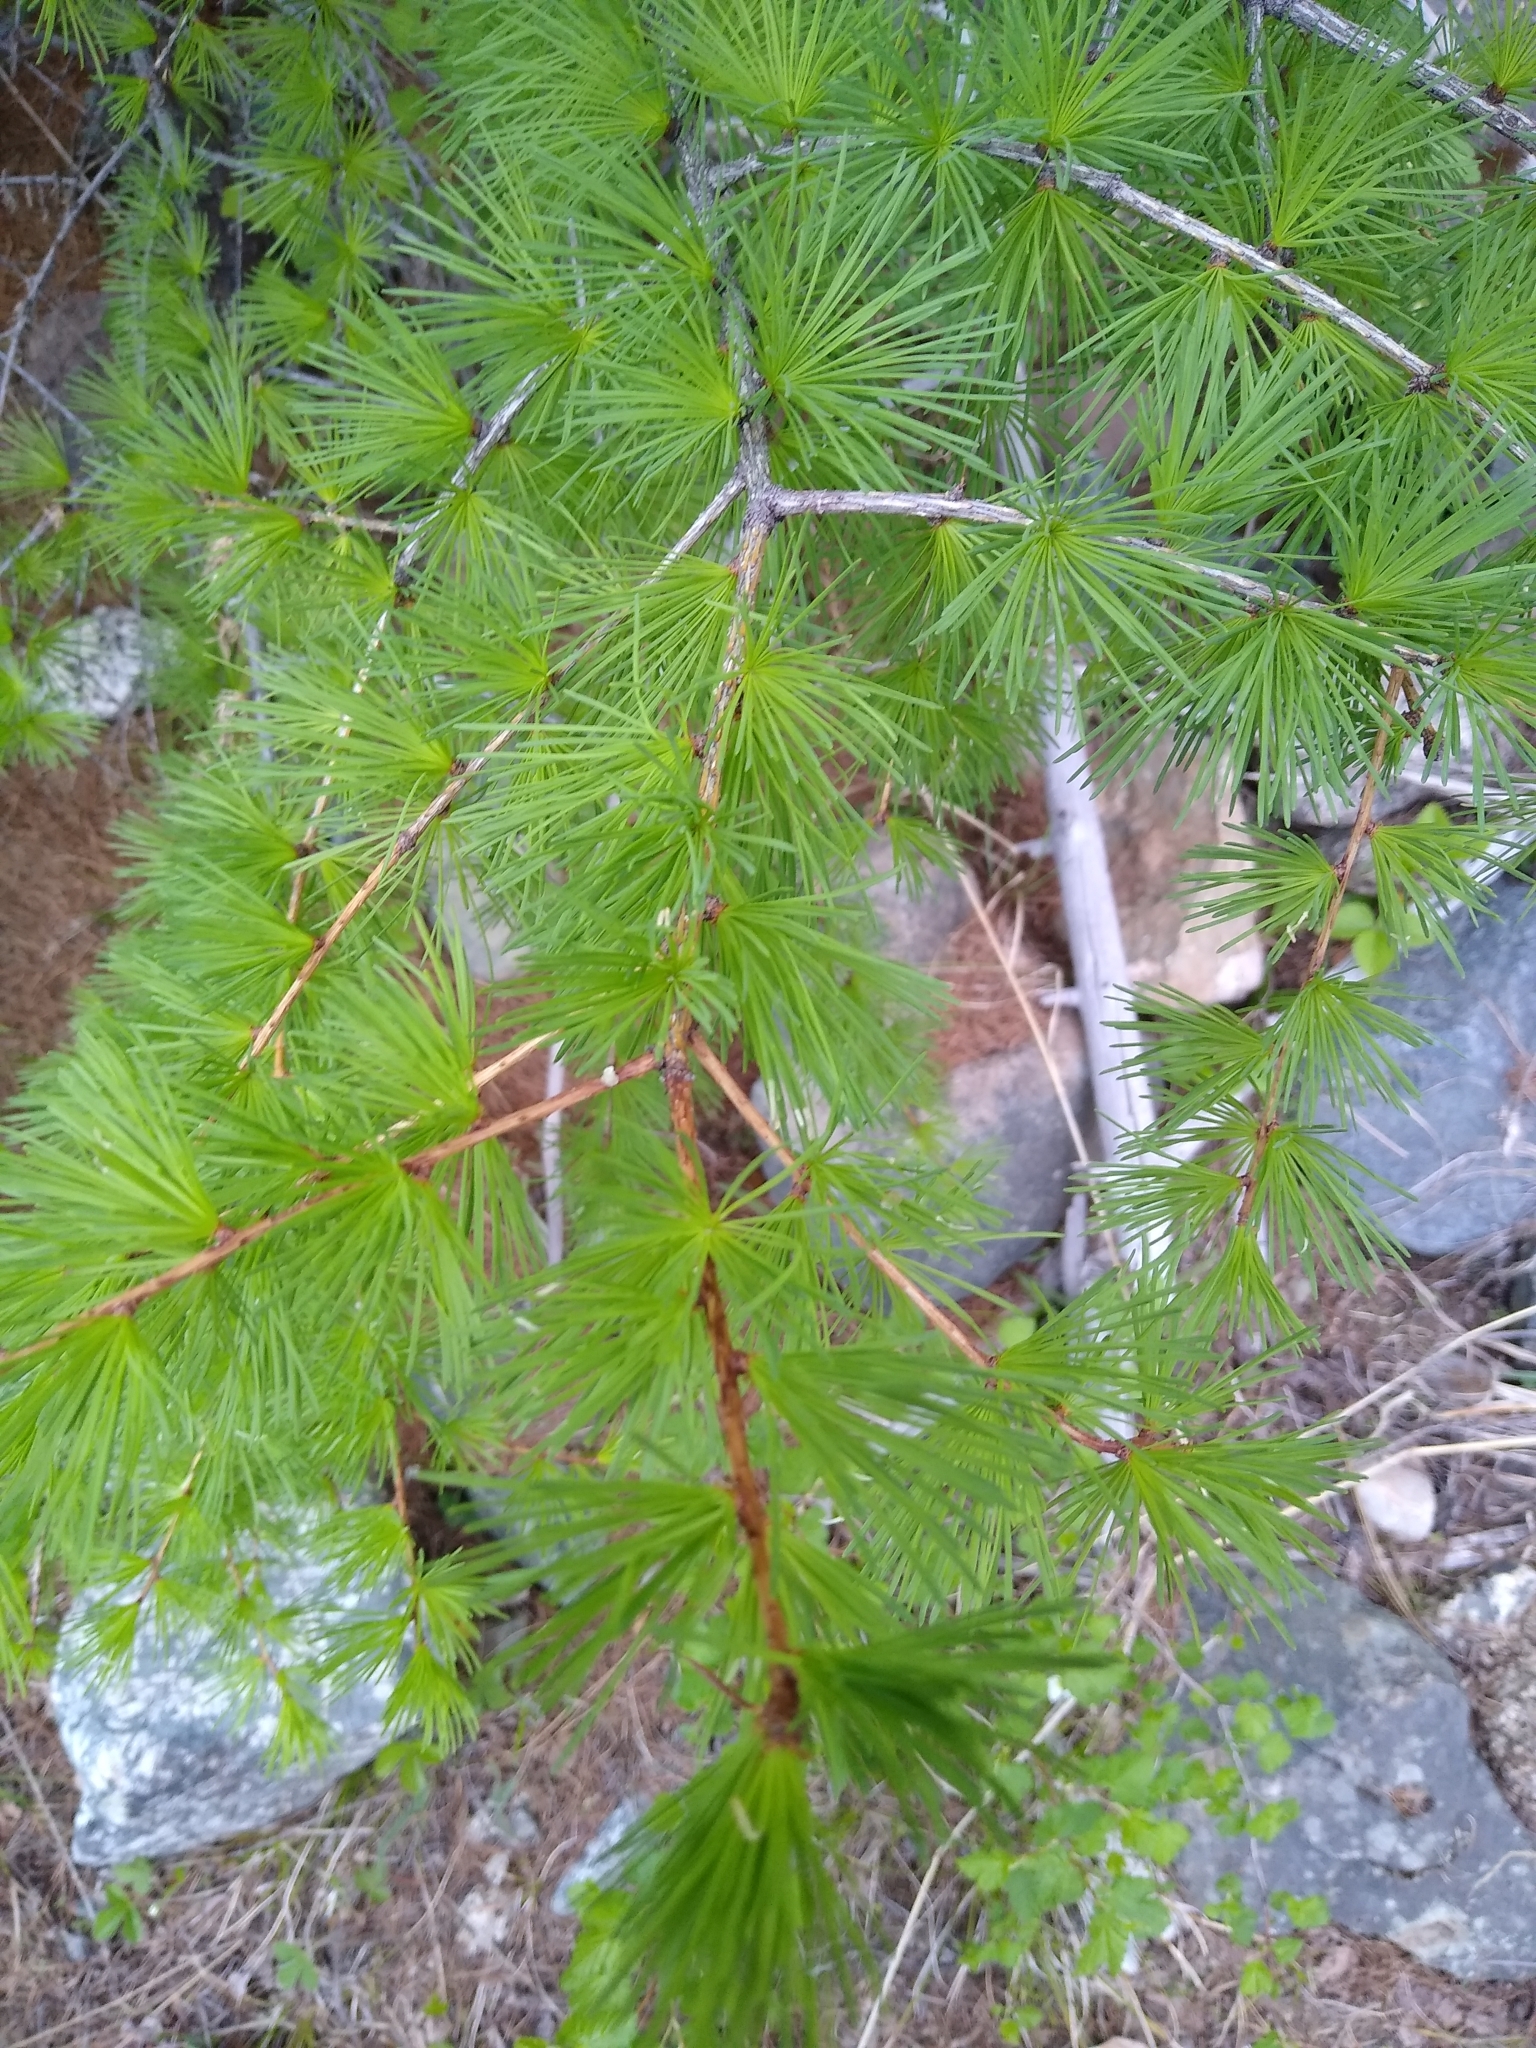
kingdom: Plantae
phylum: Tracheophyta
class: Pinopsida
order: Pinales
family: Pinaceae
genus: Larix
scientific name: Larix occidentalis
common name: Western larch
